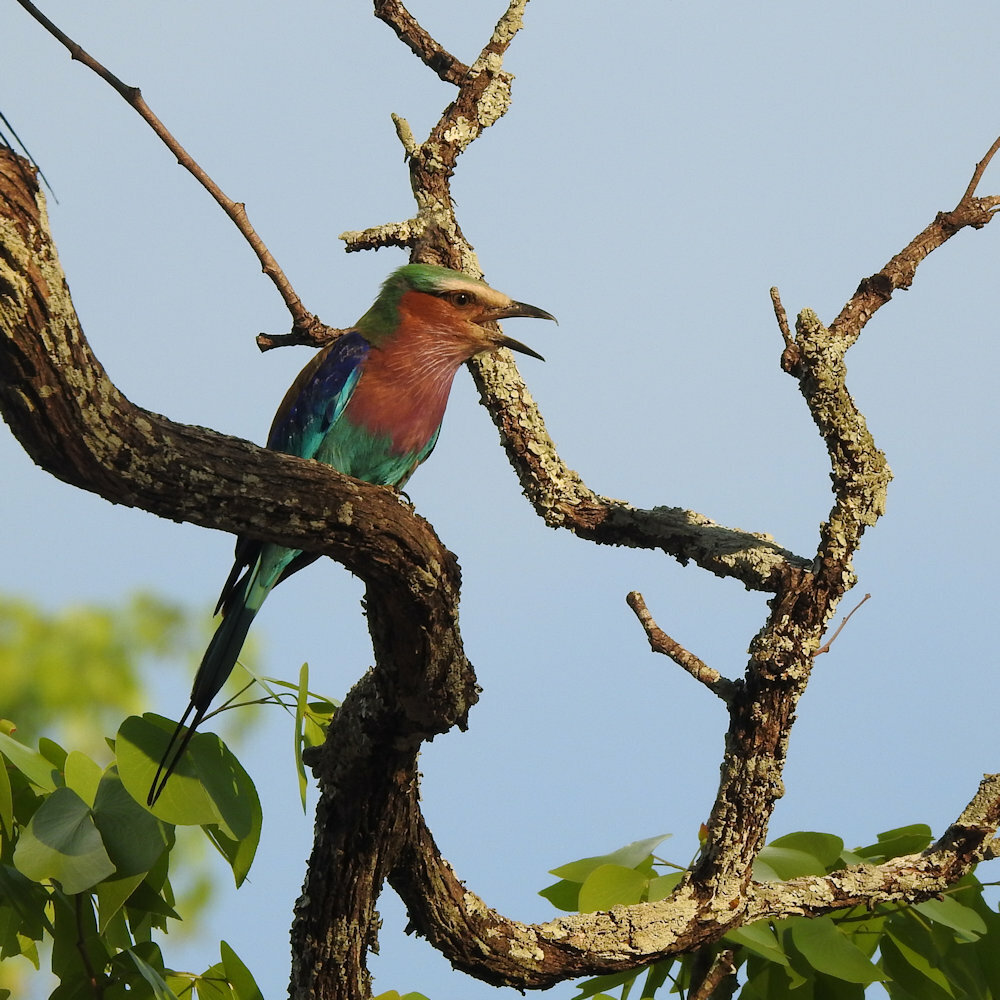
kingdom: Animalia
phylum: Chordata
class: Aves
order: Coraciiformes
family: Coraciidae
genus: Coracias
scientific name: Coracias caudatus
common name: Lilac-breasted roller
